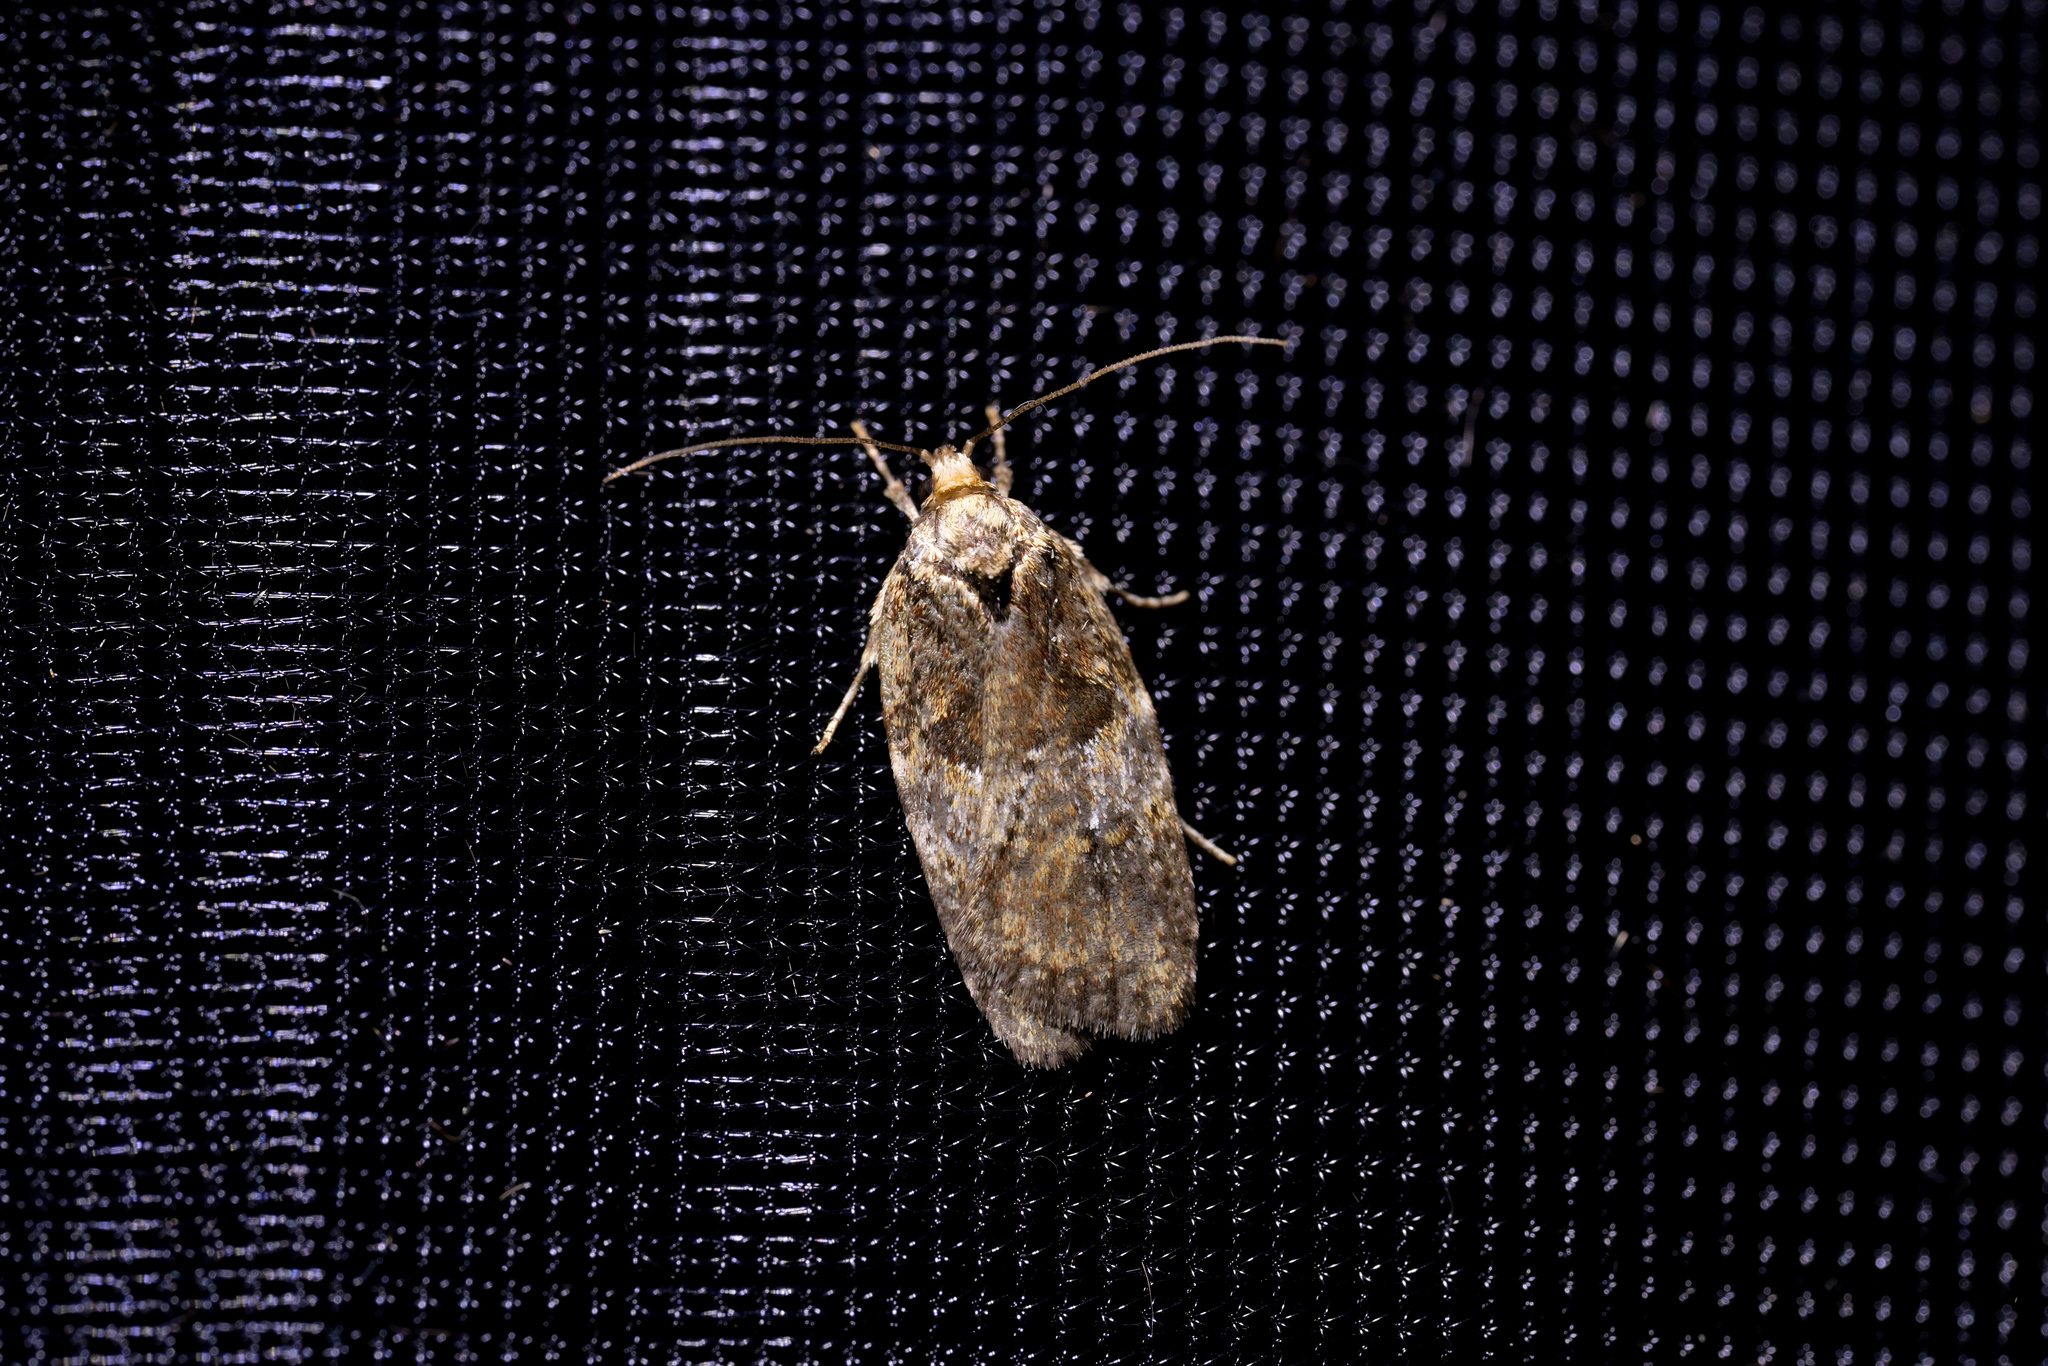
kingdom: Animalia
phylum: Arthropoda
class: Insecta
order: Lepidoptera
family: Oecophoridae
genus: Proteodes
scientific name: Proteodes profunda
